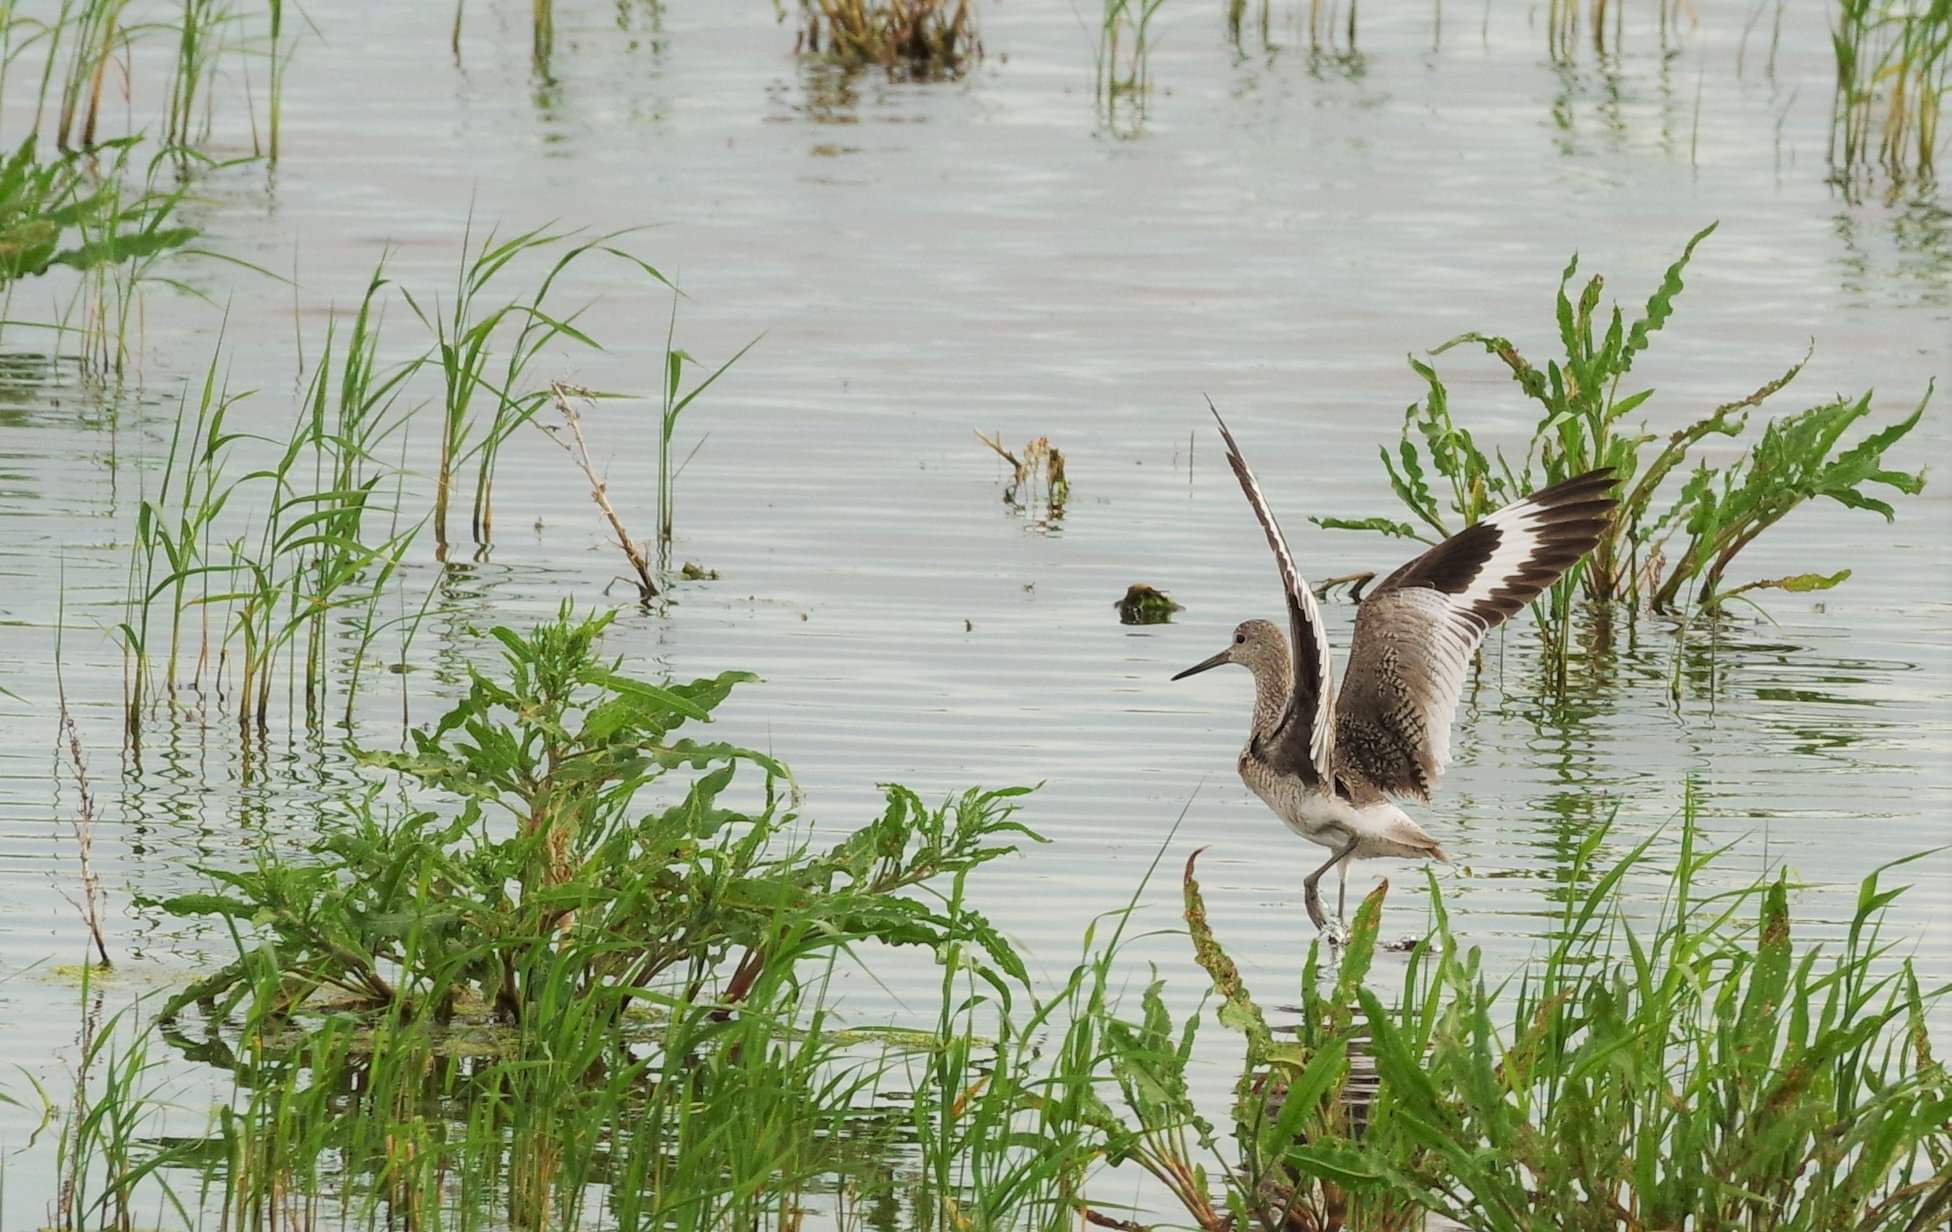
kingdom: Animalia
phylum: Chordata
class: Aves
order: Charadriiformes
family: Scolopacidae
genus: Tringa
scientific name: Tringa semipalmata
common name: Willet
